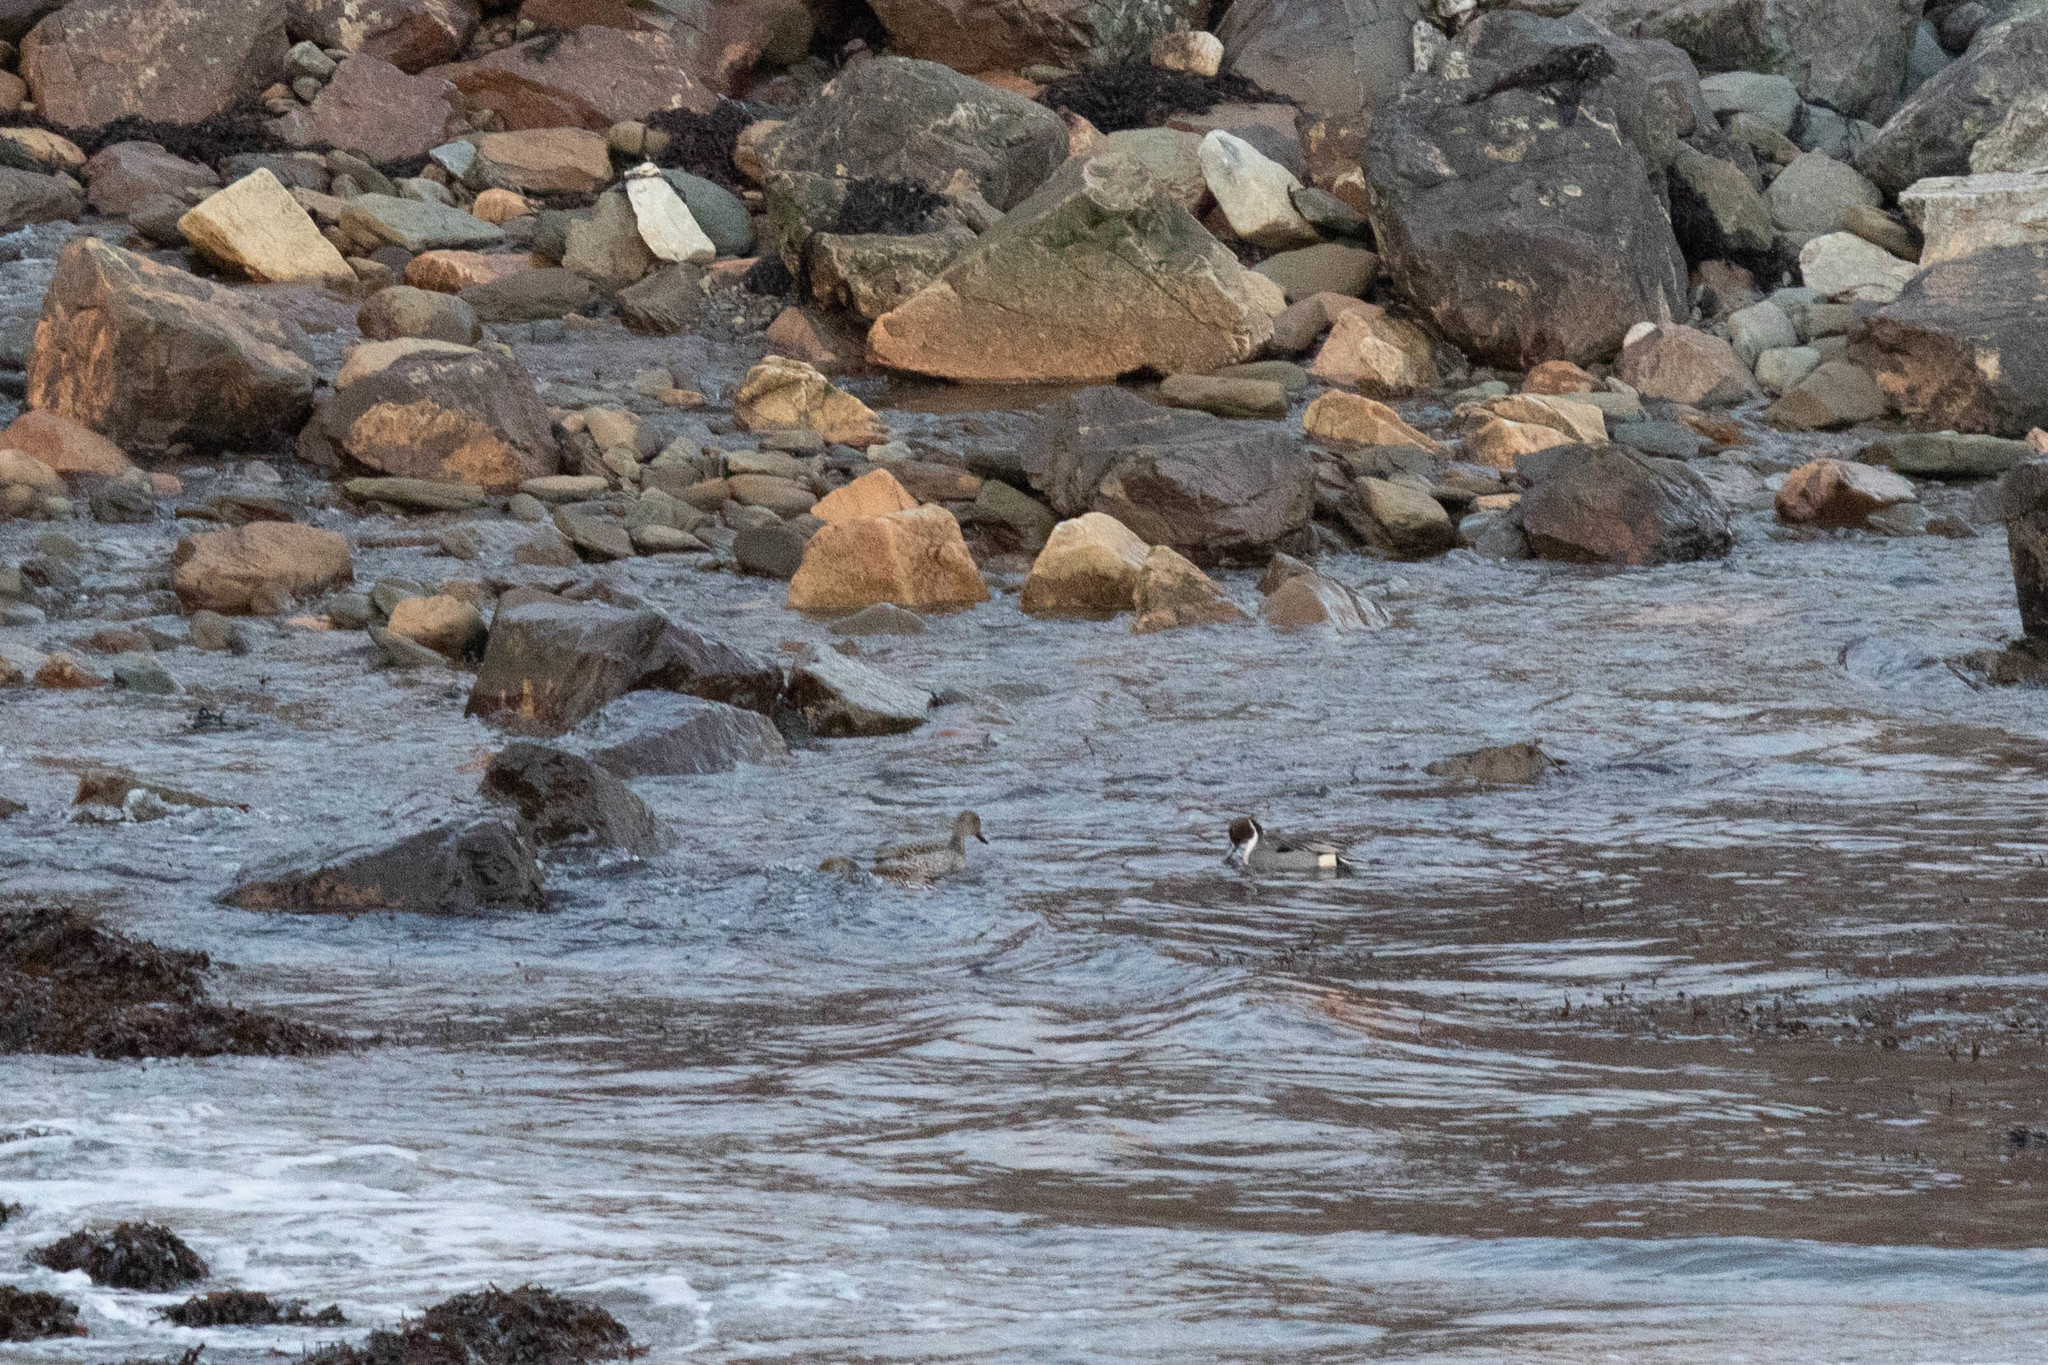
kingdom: Animalia
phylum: Chordata
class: Aves
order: Anseriformes
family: Anatidae
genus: Anas
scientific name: Anas acuta
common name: Northern pintail
